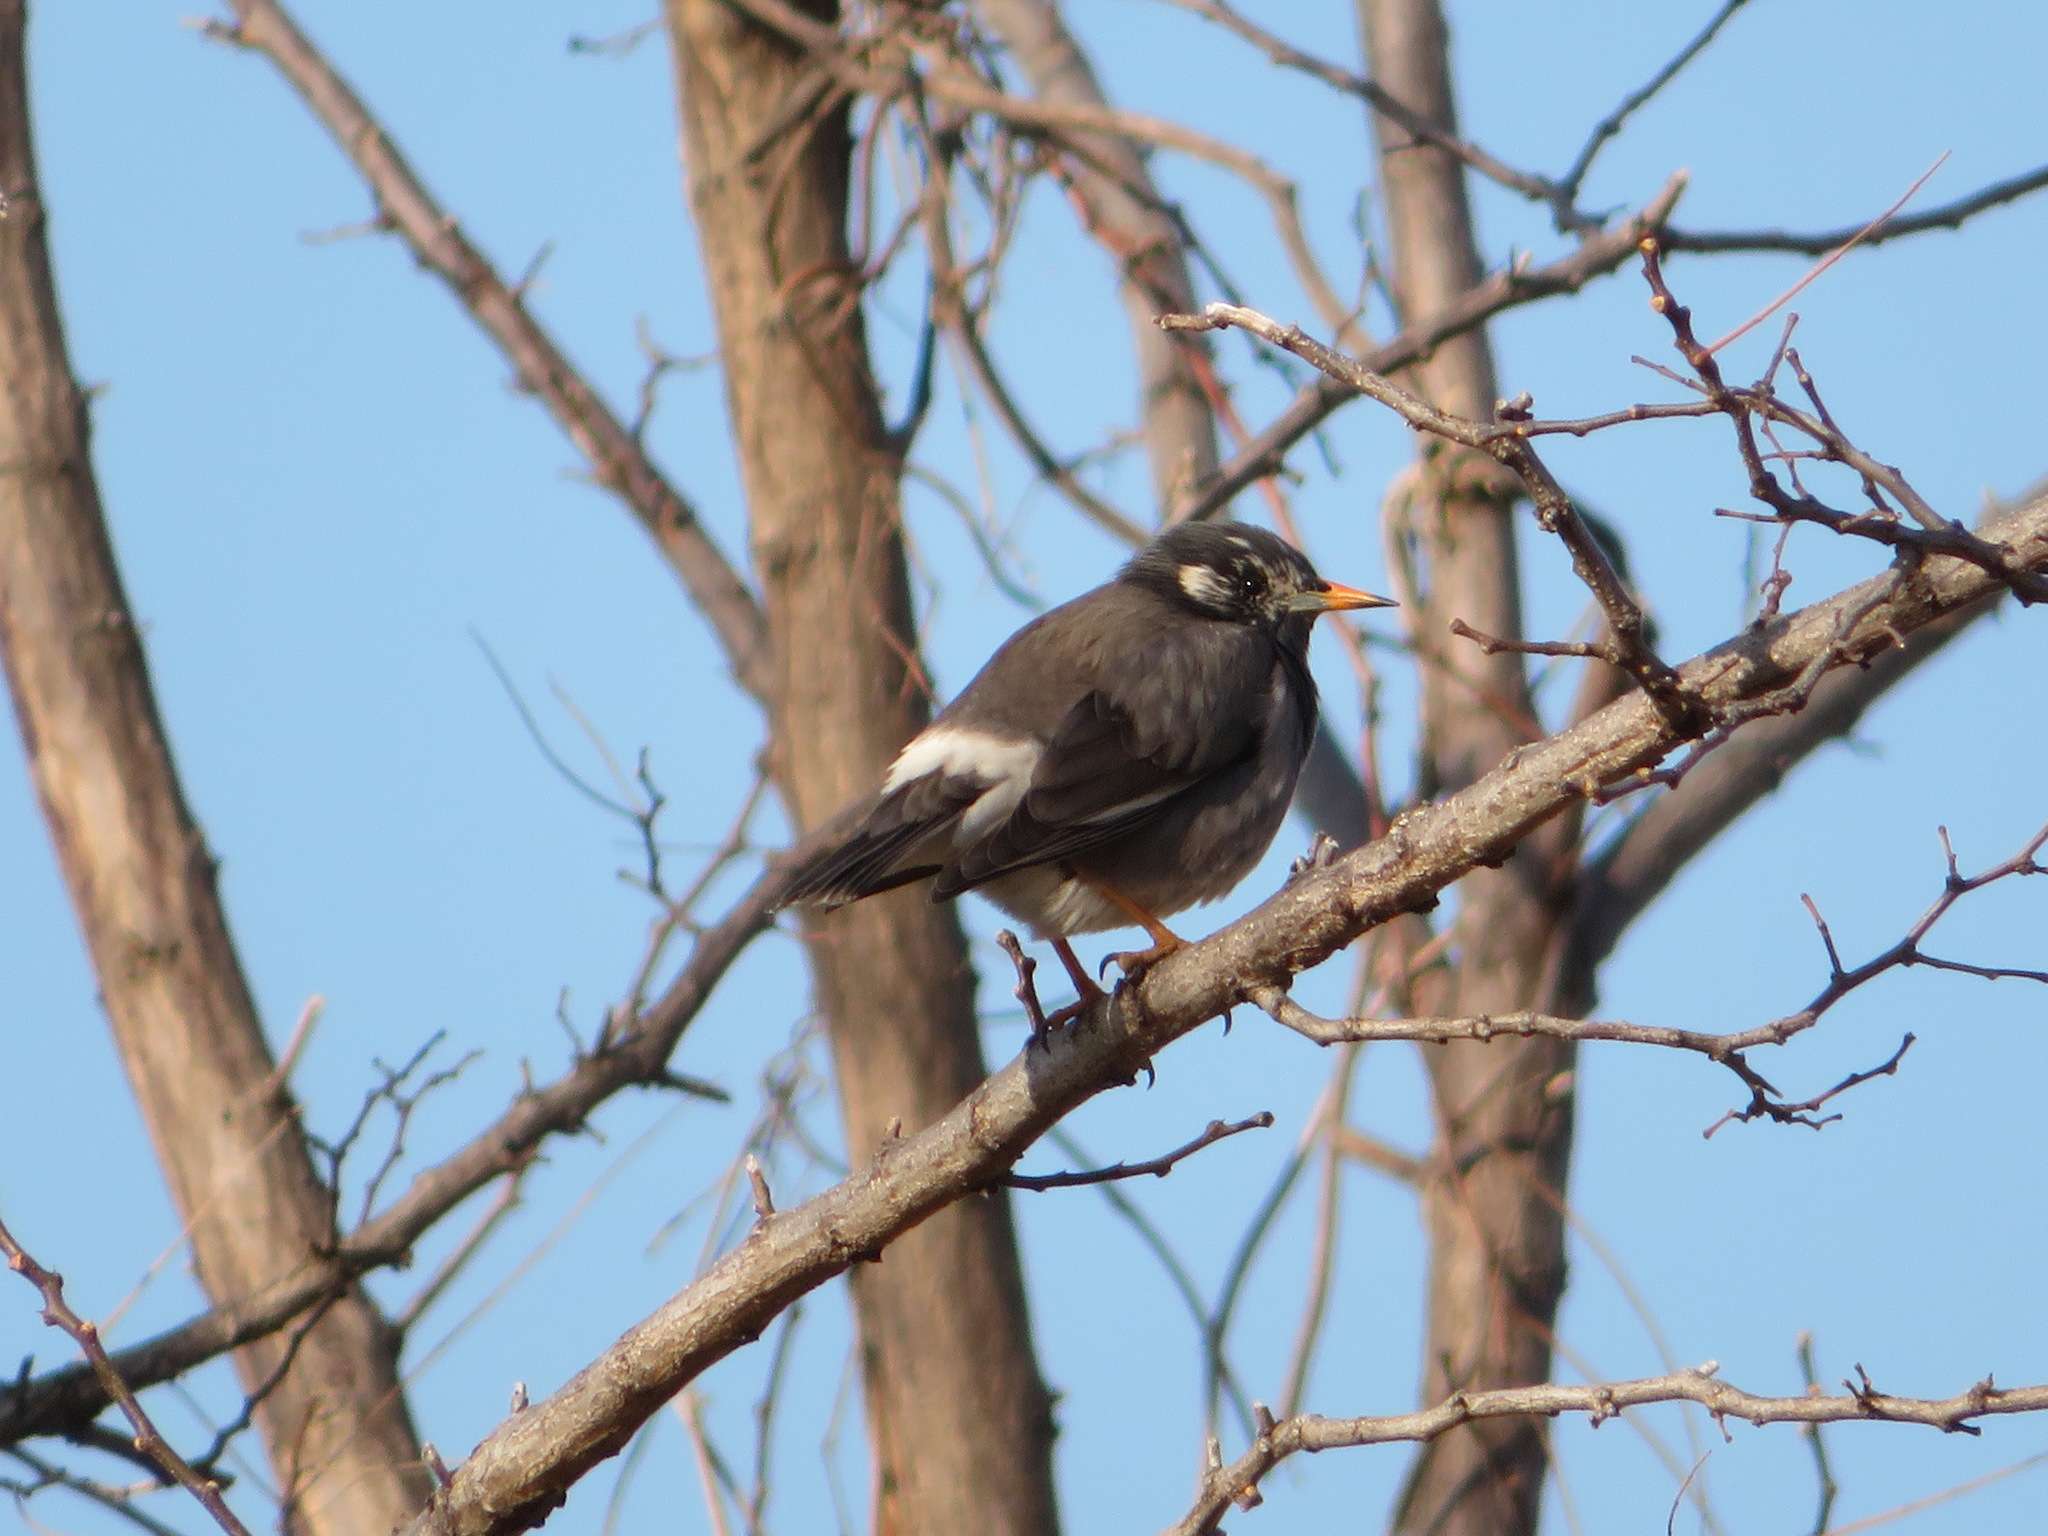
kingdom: Animalia
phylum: Chordata
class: Aves
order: Passeriformes
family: Sturnidae
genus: Spodiopsar
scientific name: Spodiopsar cineraceus
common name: White-cheeked starling
